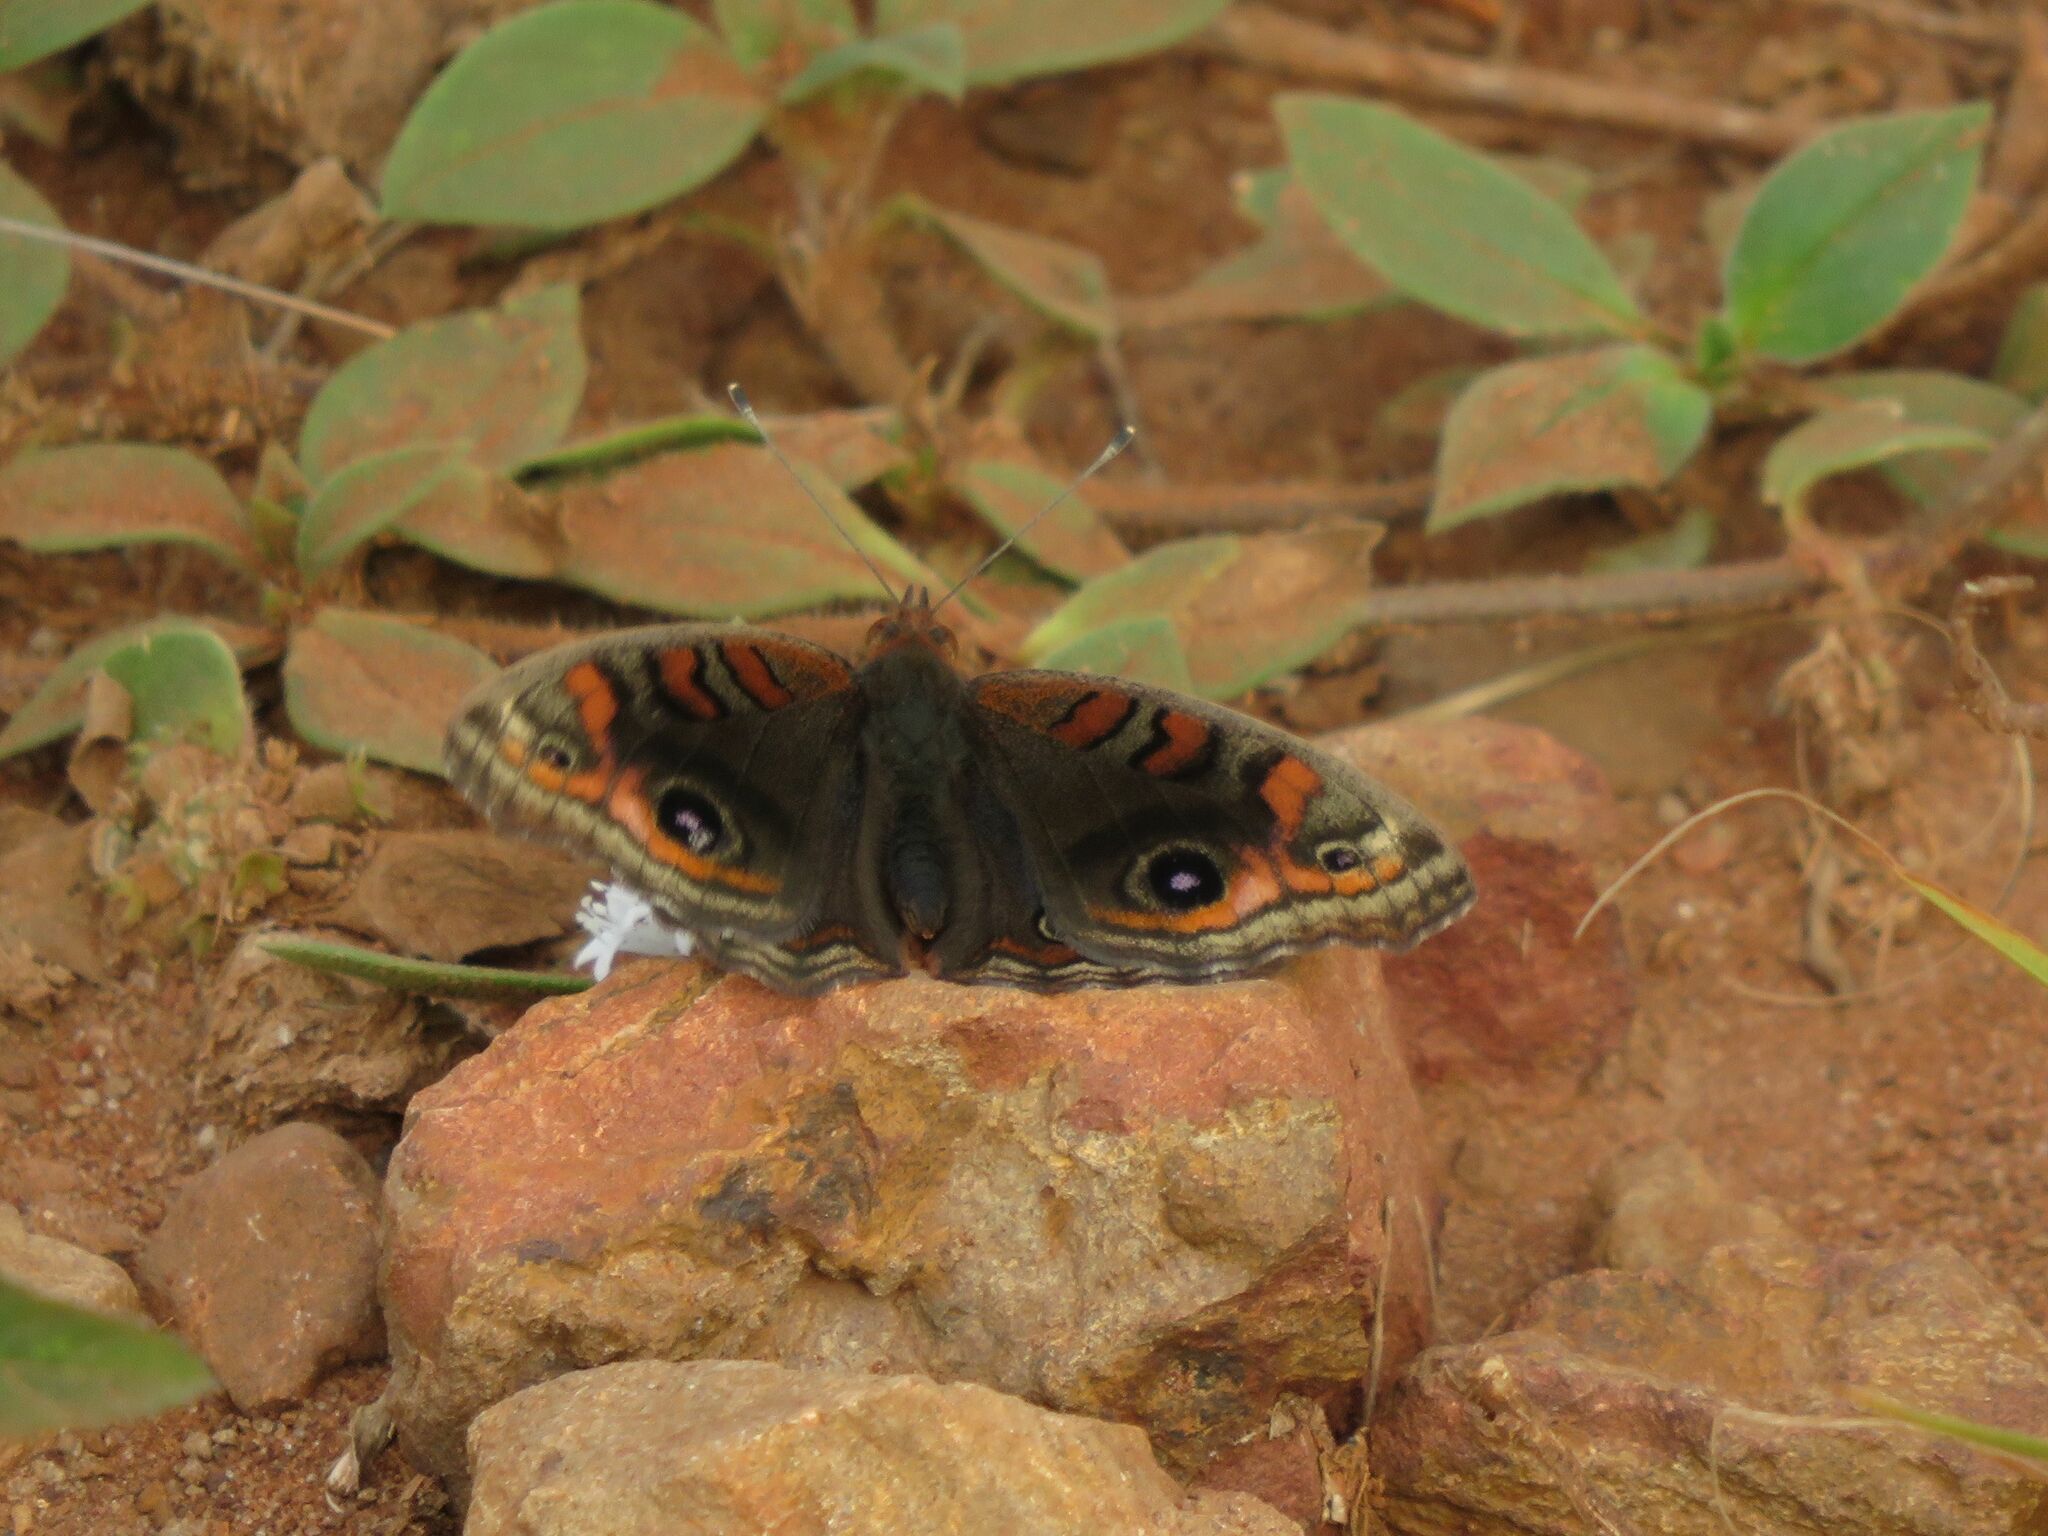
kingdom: Animalia
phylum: Arthropoda
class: Insecta
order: Lepidoptera
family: Nymphalidae
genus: Junonia
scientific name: Junonia lavinia
